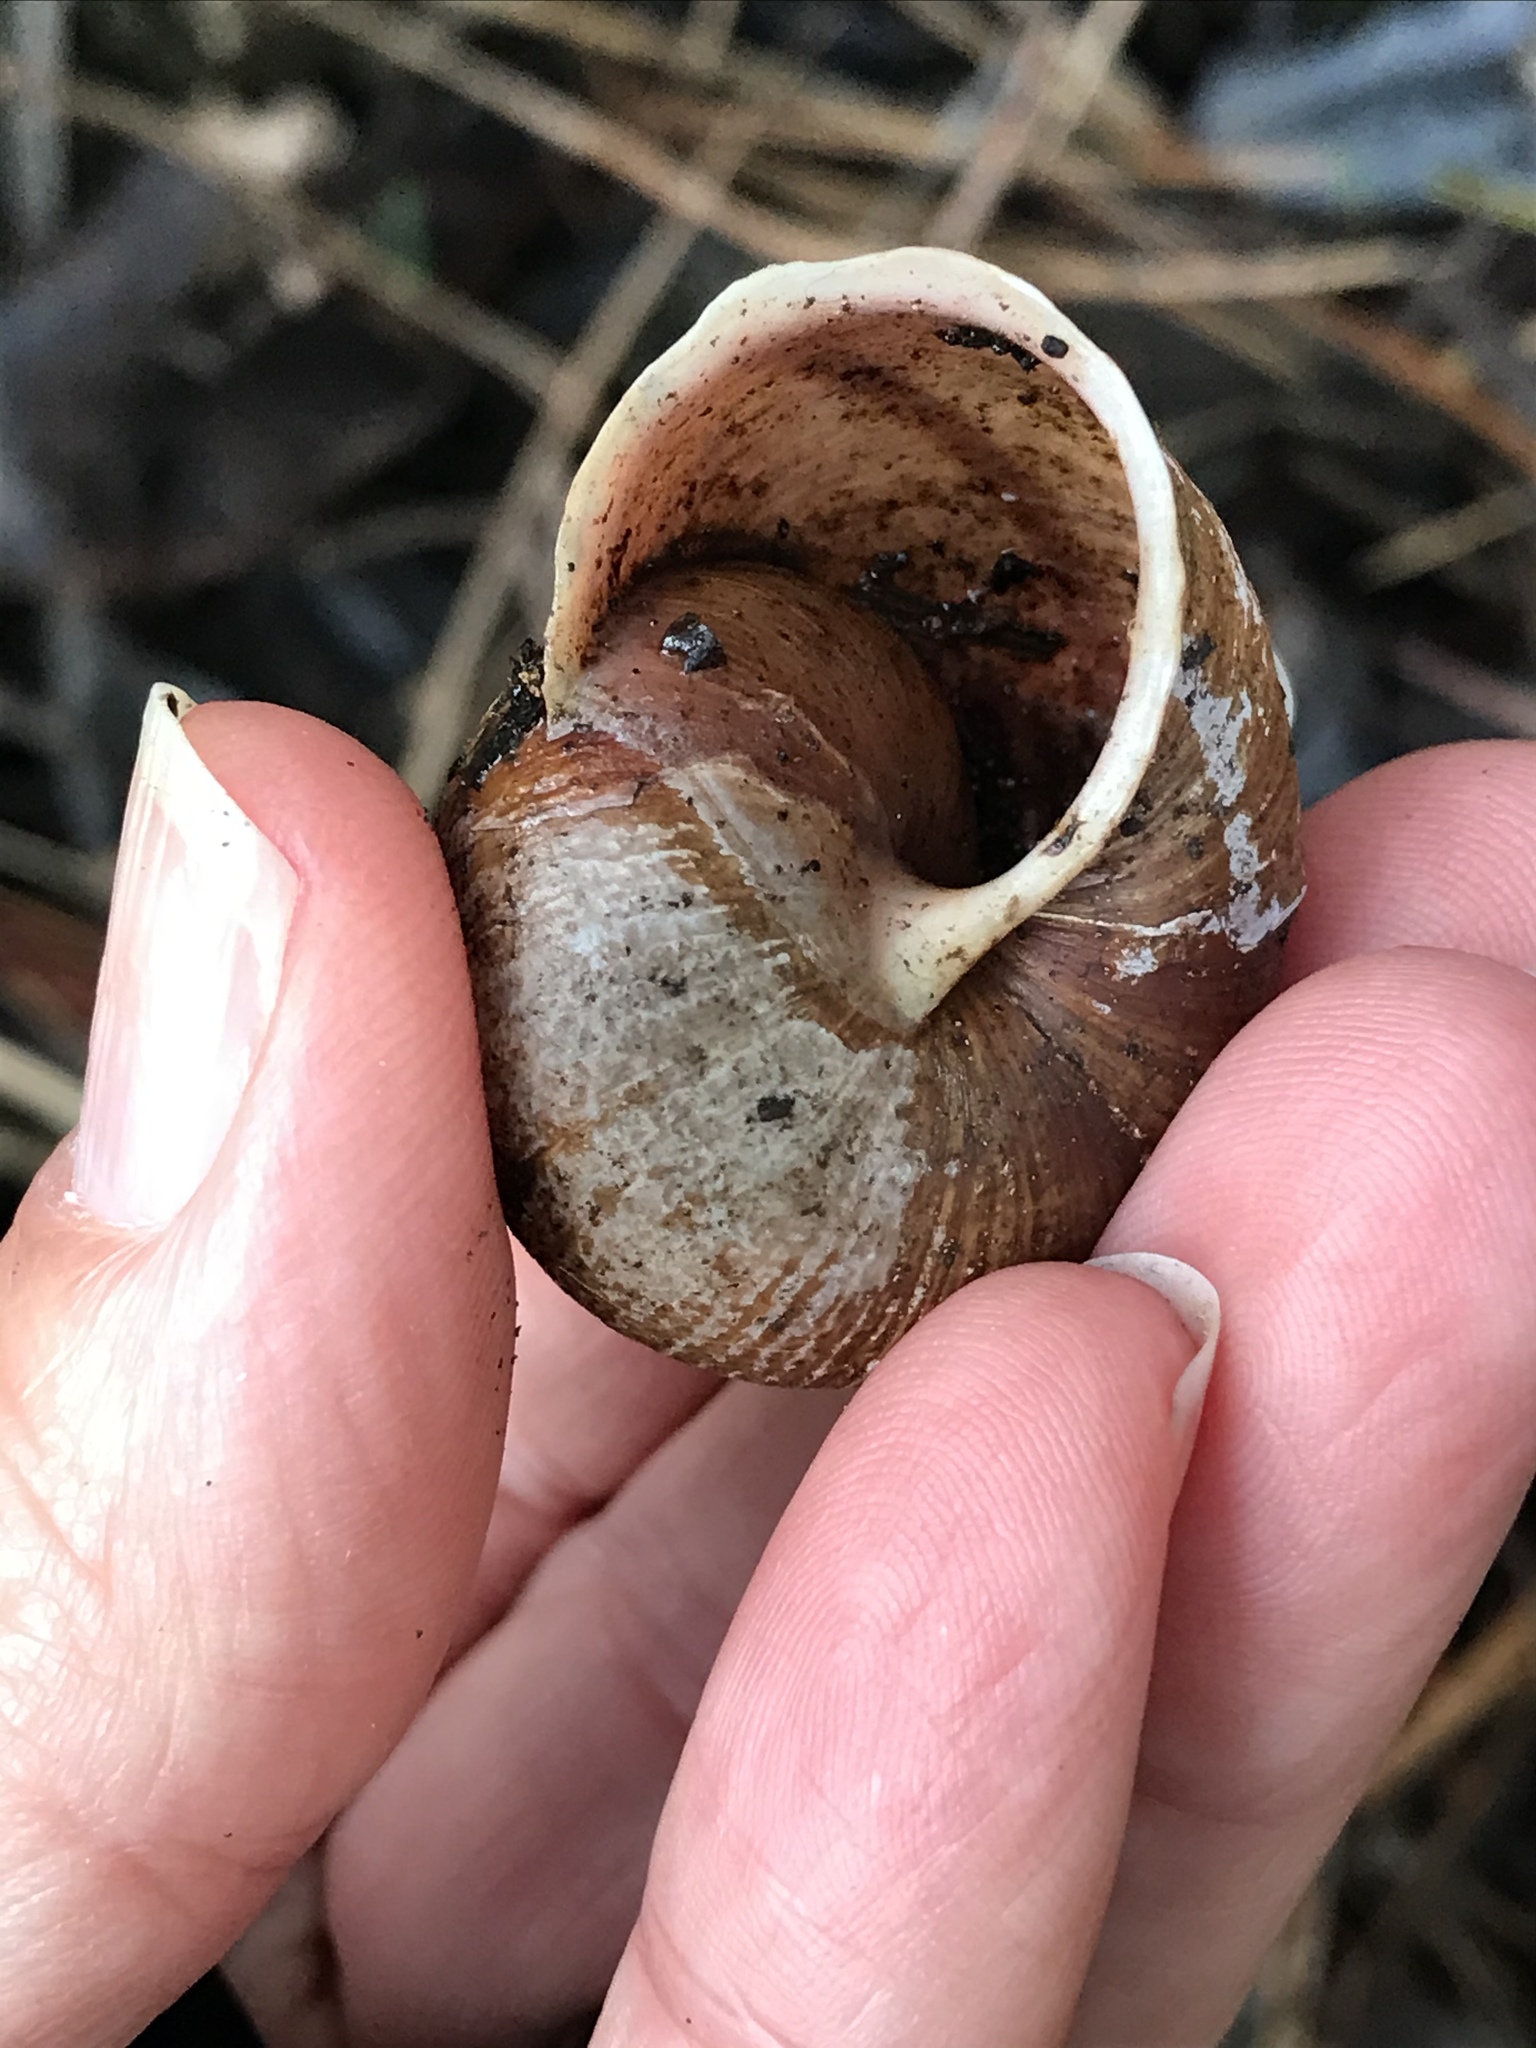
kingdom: Animalia
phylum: Mollusca
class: Gastropoda
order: Stylommatophora
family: Xanthonychidae
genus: Helminthoglypta
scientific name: Helminthoglypta arrosa
